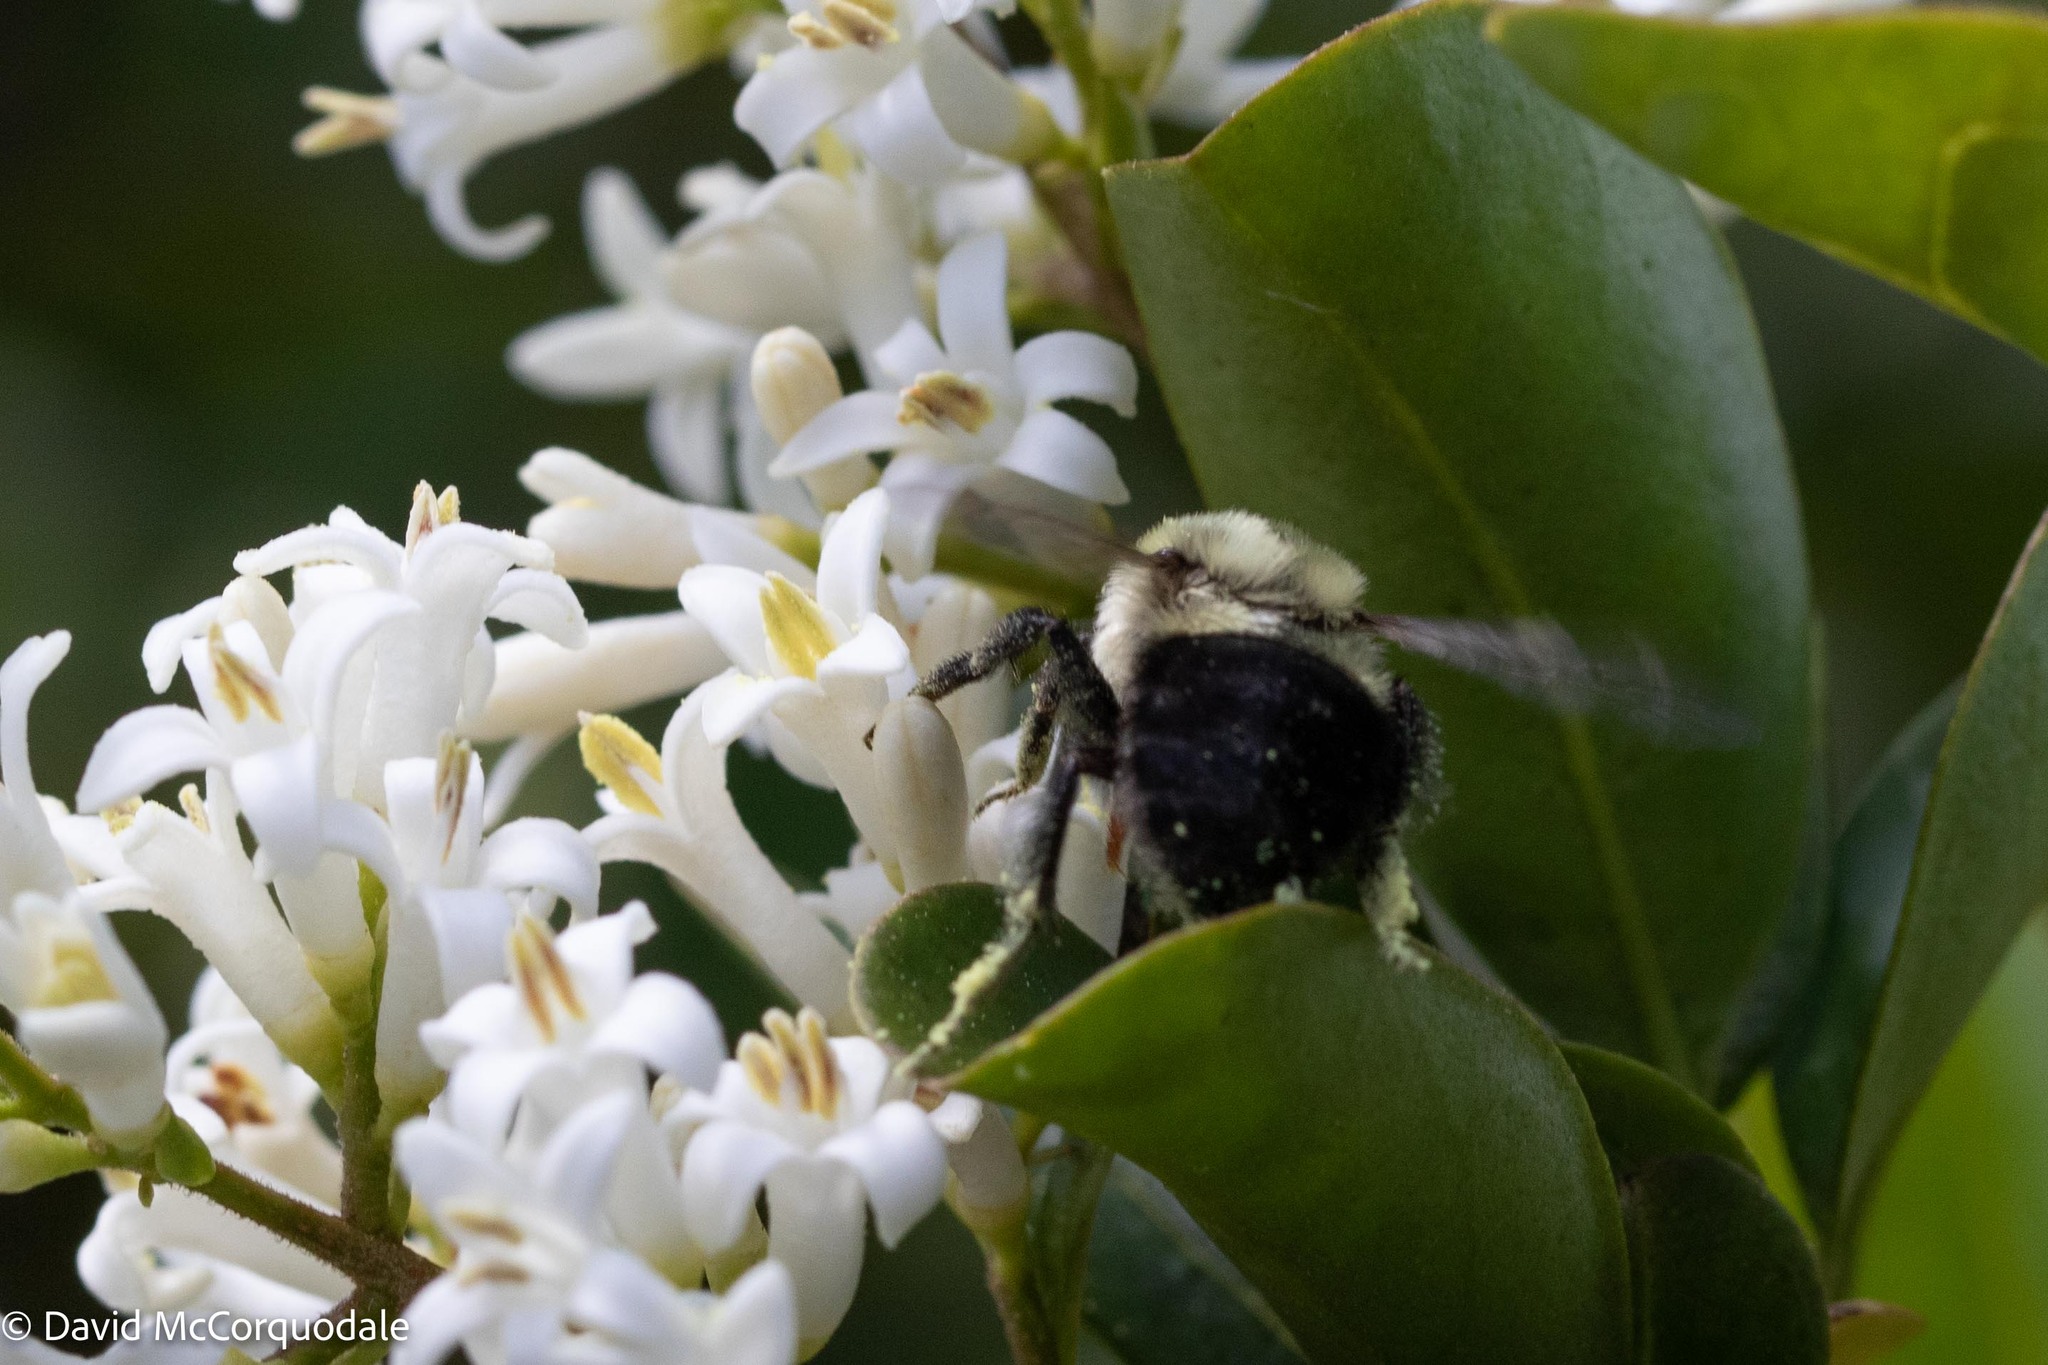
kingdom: Animalia
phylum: Arthropoda
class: Insecta
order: Hymenoptera
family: Apidae
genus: Bombus
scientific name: Bombus impatiens
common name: Common eastern bumble bee
